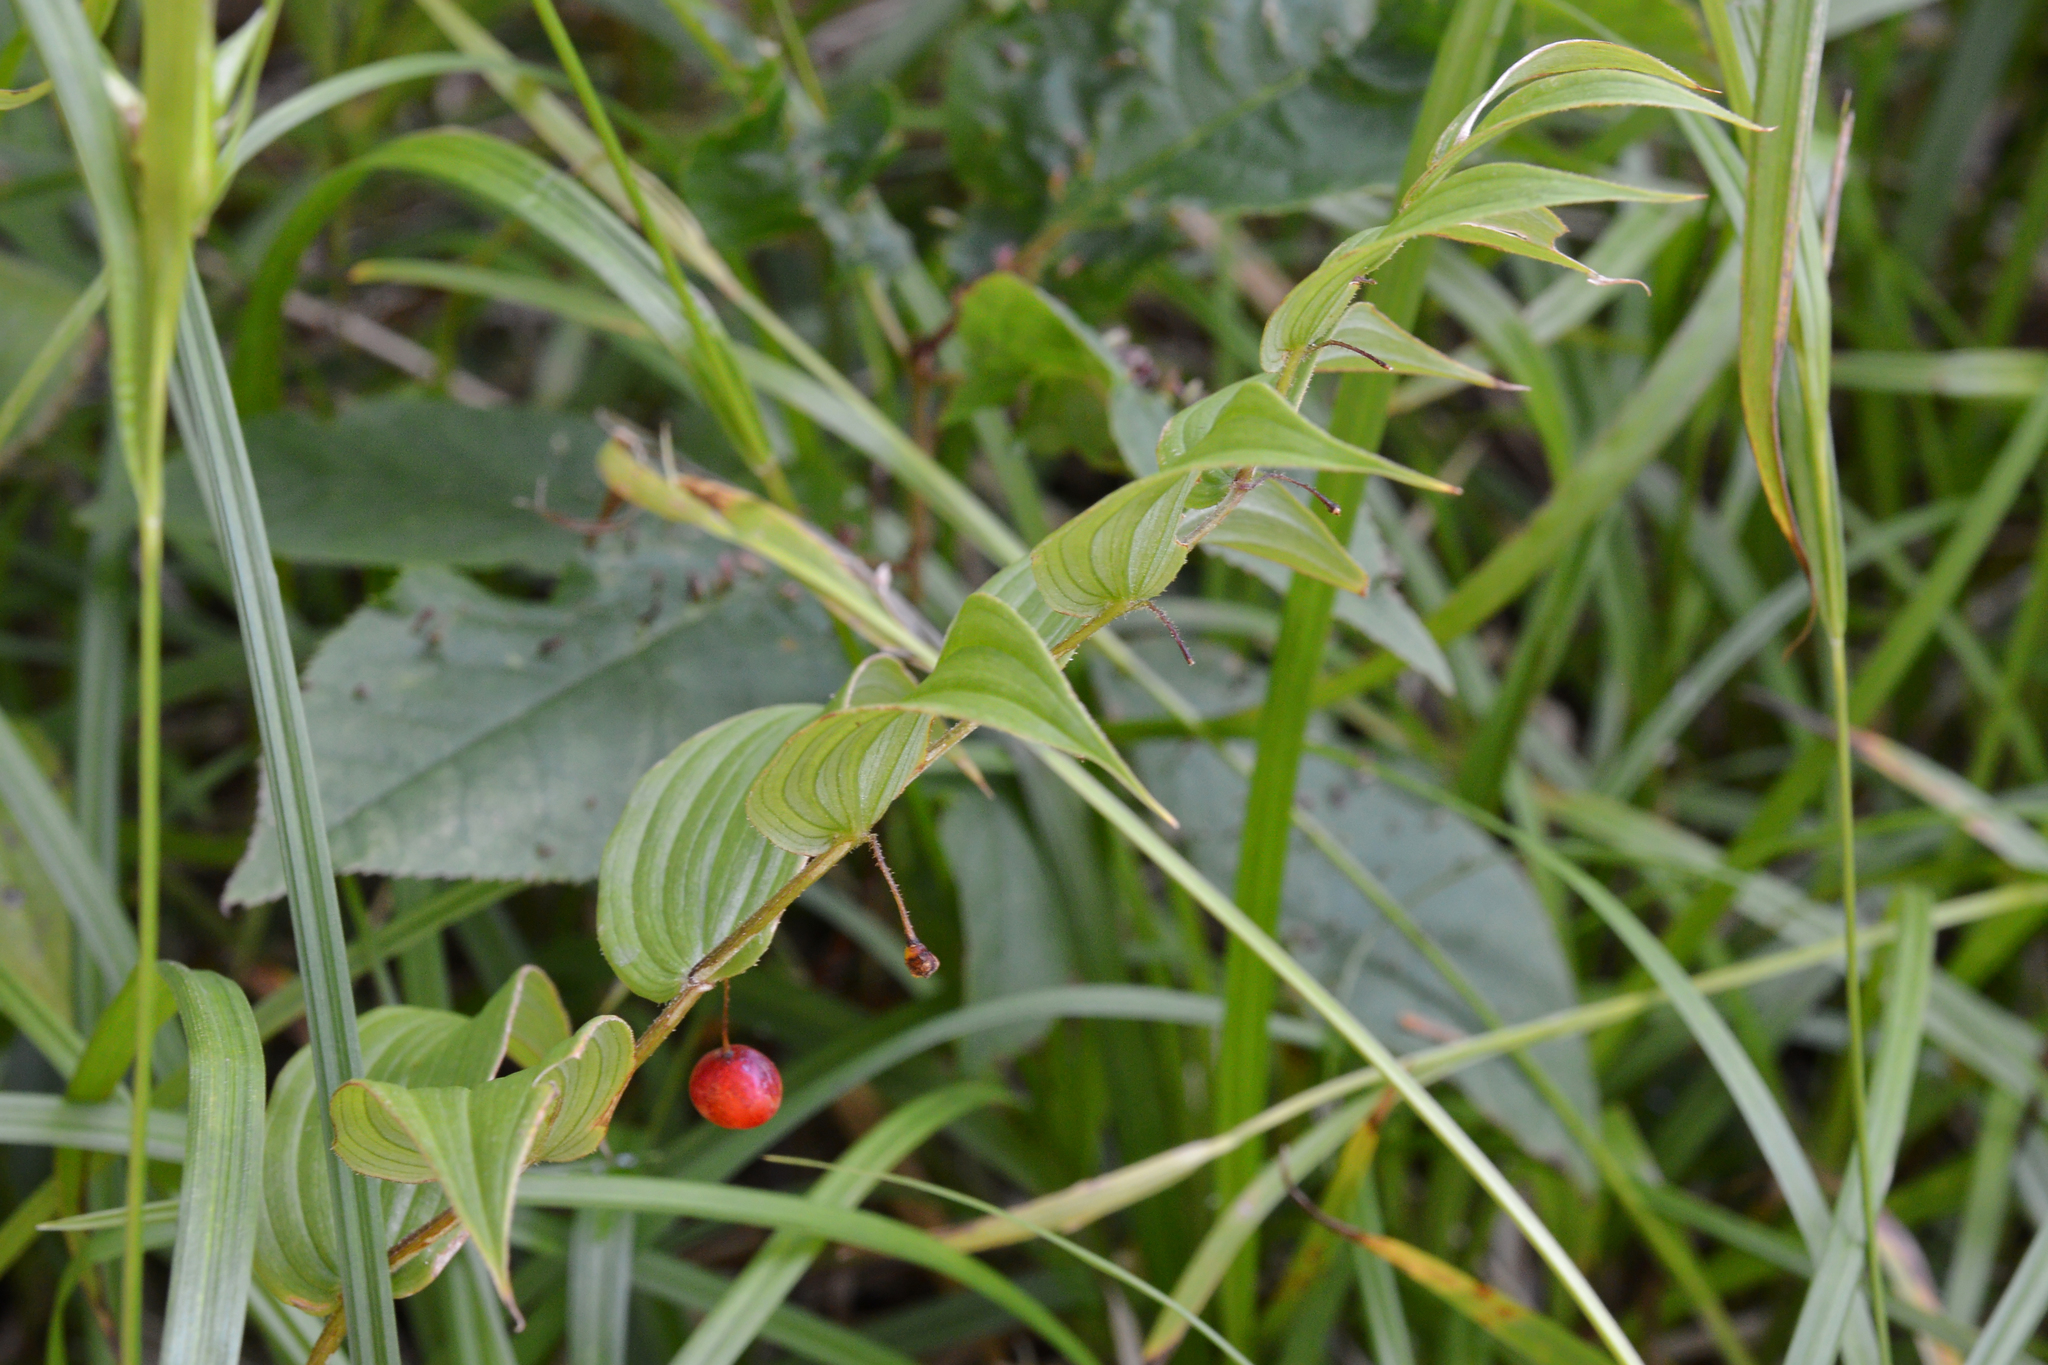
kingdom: Plantae
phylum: Tracheophyta
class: Liliopsida
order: Liliales
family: Liliaceae
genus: Streptopus
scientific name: Streptopus lanceolatus
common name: Rose mandarin
